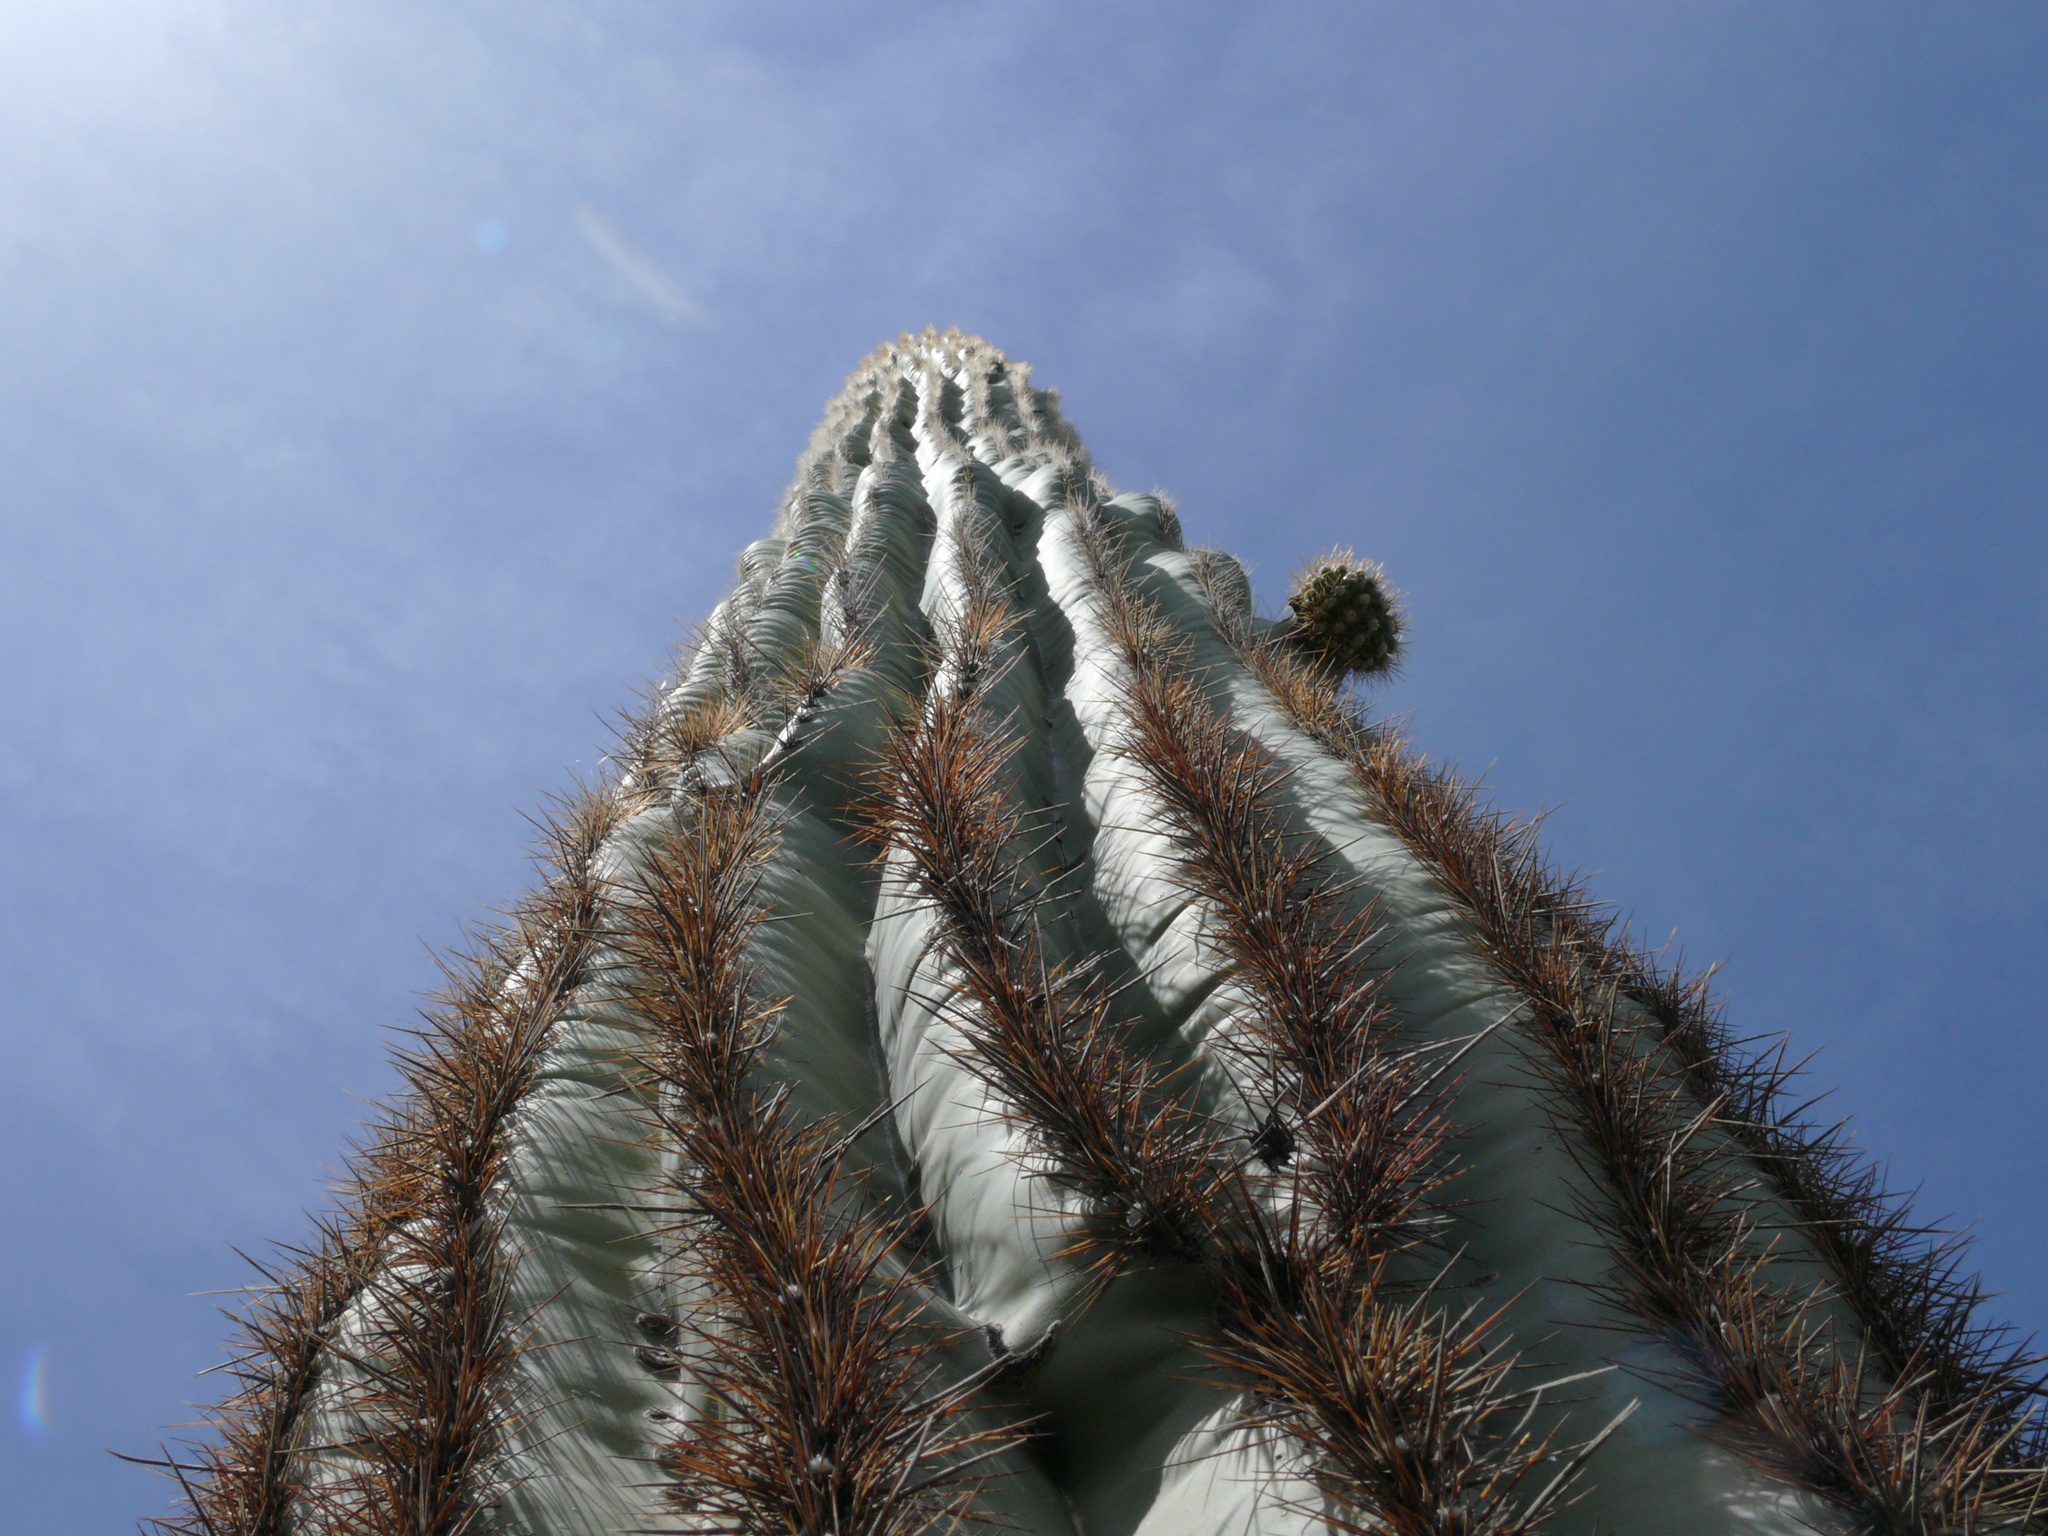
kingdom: Plantae
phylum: Tracheophyta
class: Magnoliopsida
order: Caryophyllales
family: Cactaceae
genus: Carnegiea
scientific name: Carnegiea gigantea
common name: Saguaro
